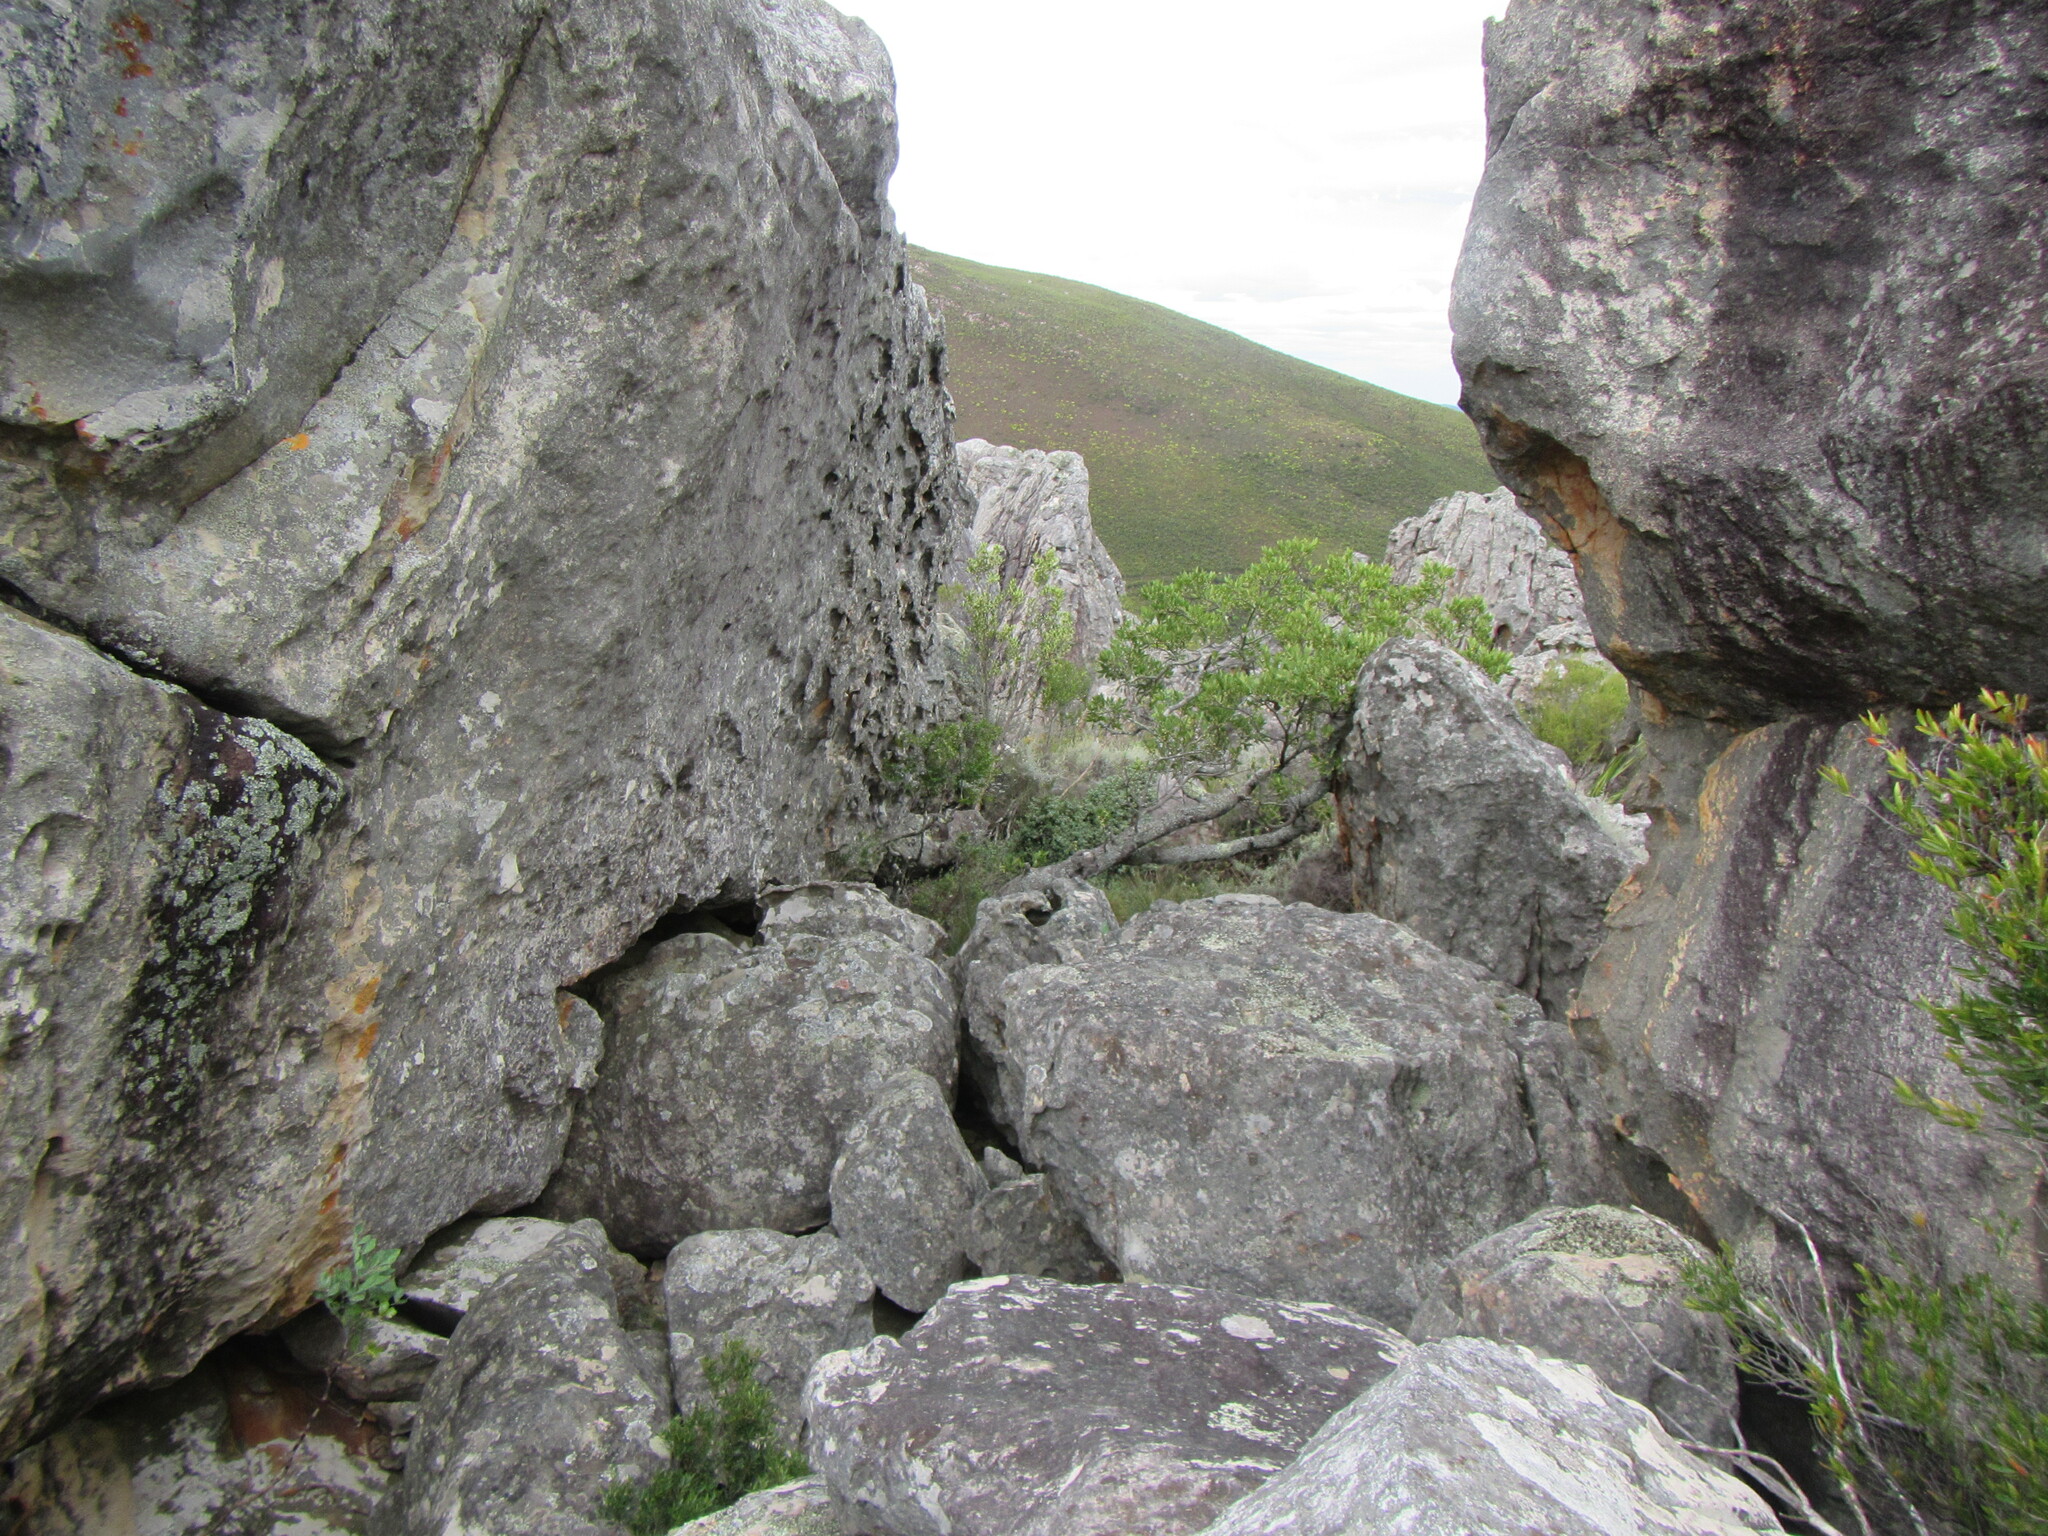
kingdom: Plantae
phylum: Tracheophyta
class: Magnoliopsida
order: Celastrales
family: Celastraceae
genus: Gymnosporia
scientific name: Gymnosporia laurina
